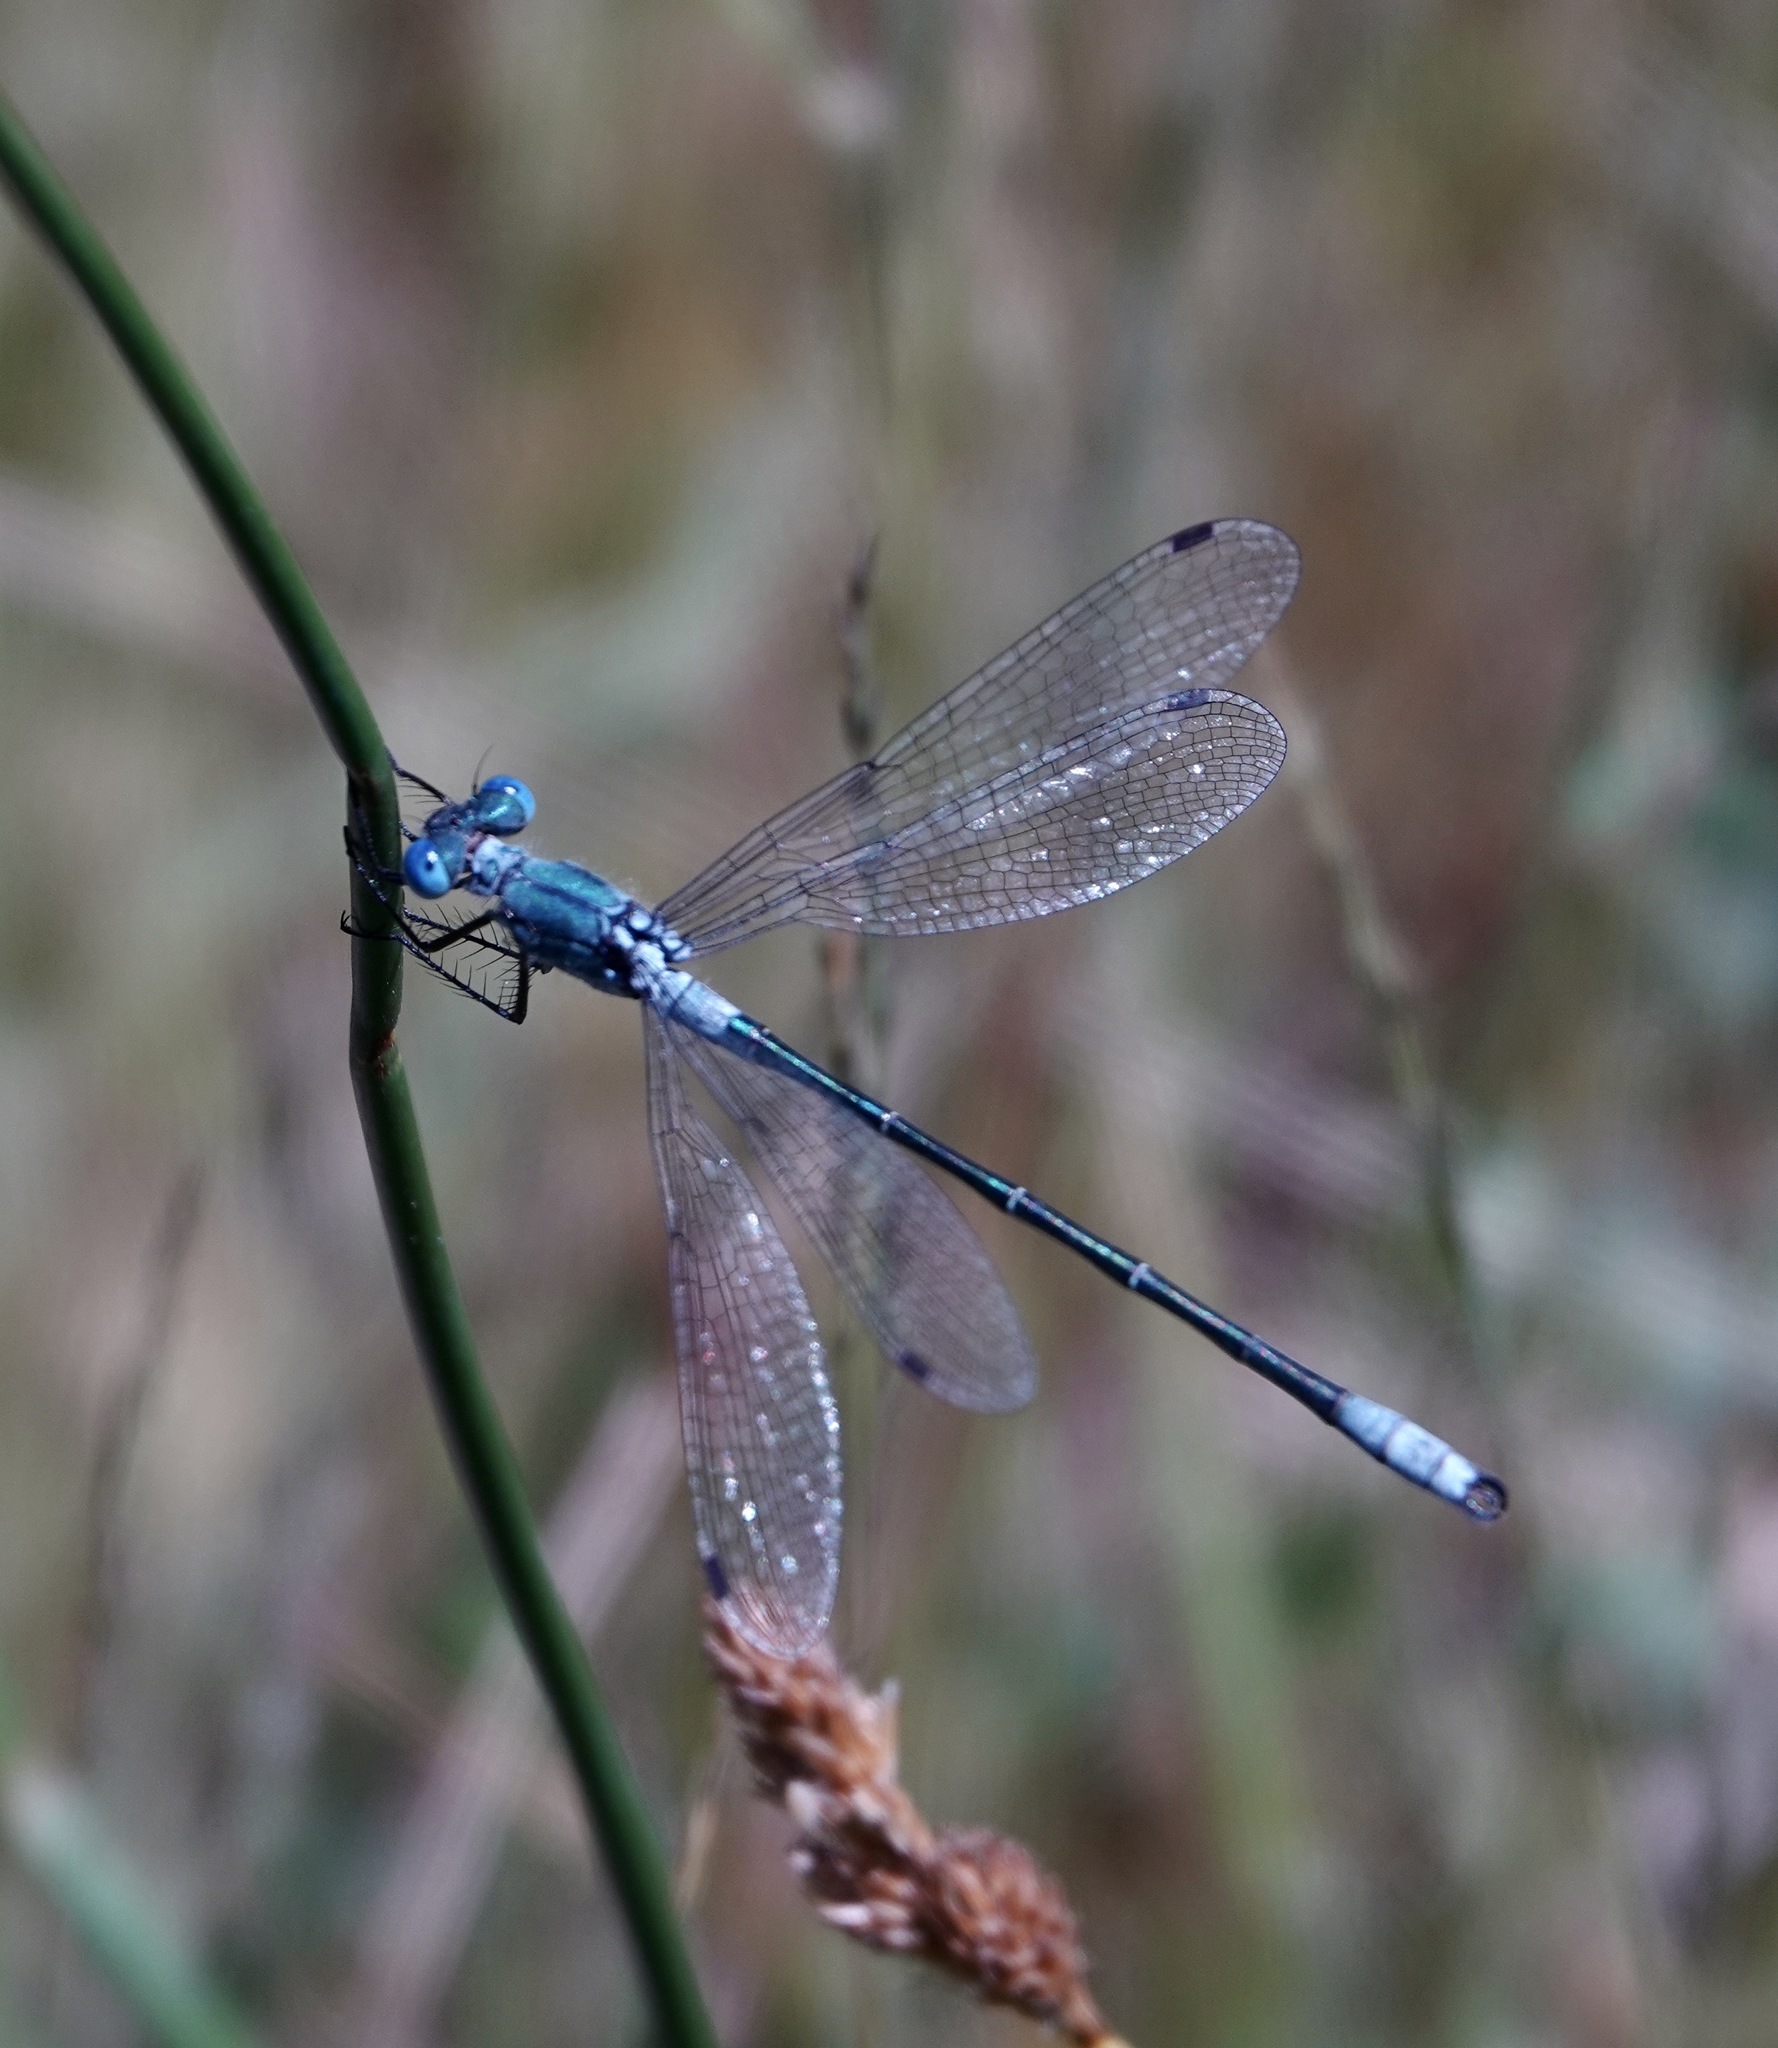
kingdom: Animalia
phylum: Arthropoda
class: Insecta
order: Odonata
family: Lestidae
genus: Lestes
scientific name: Lestes dryas
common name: Scarce emerald damselfly
